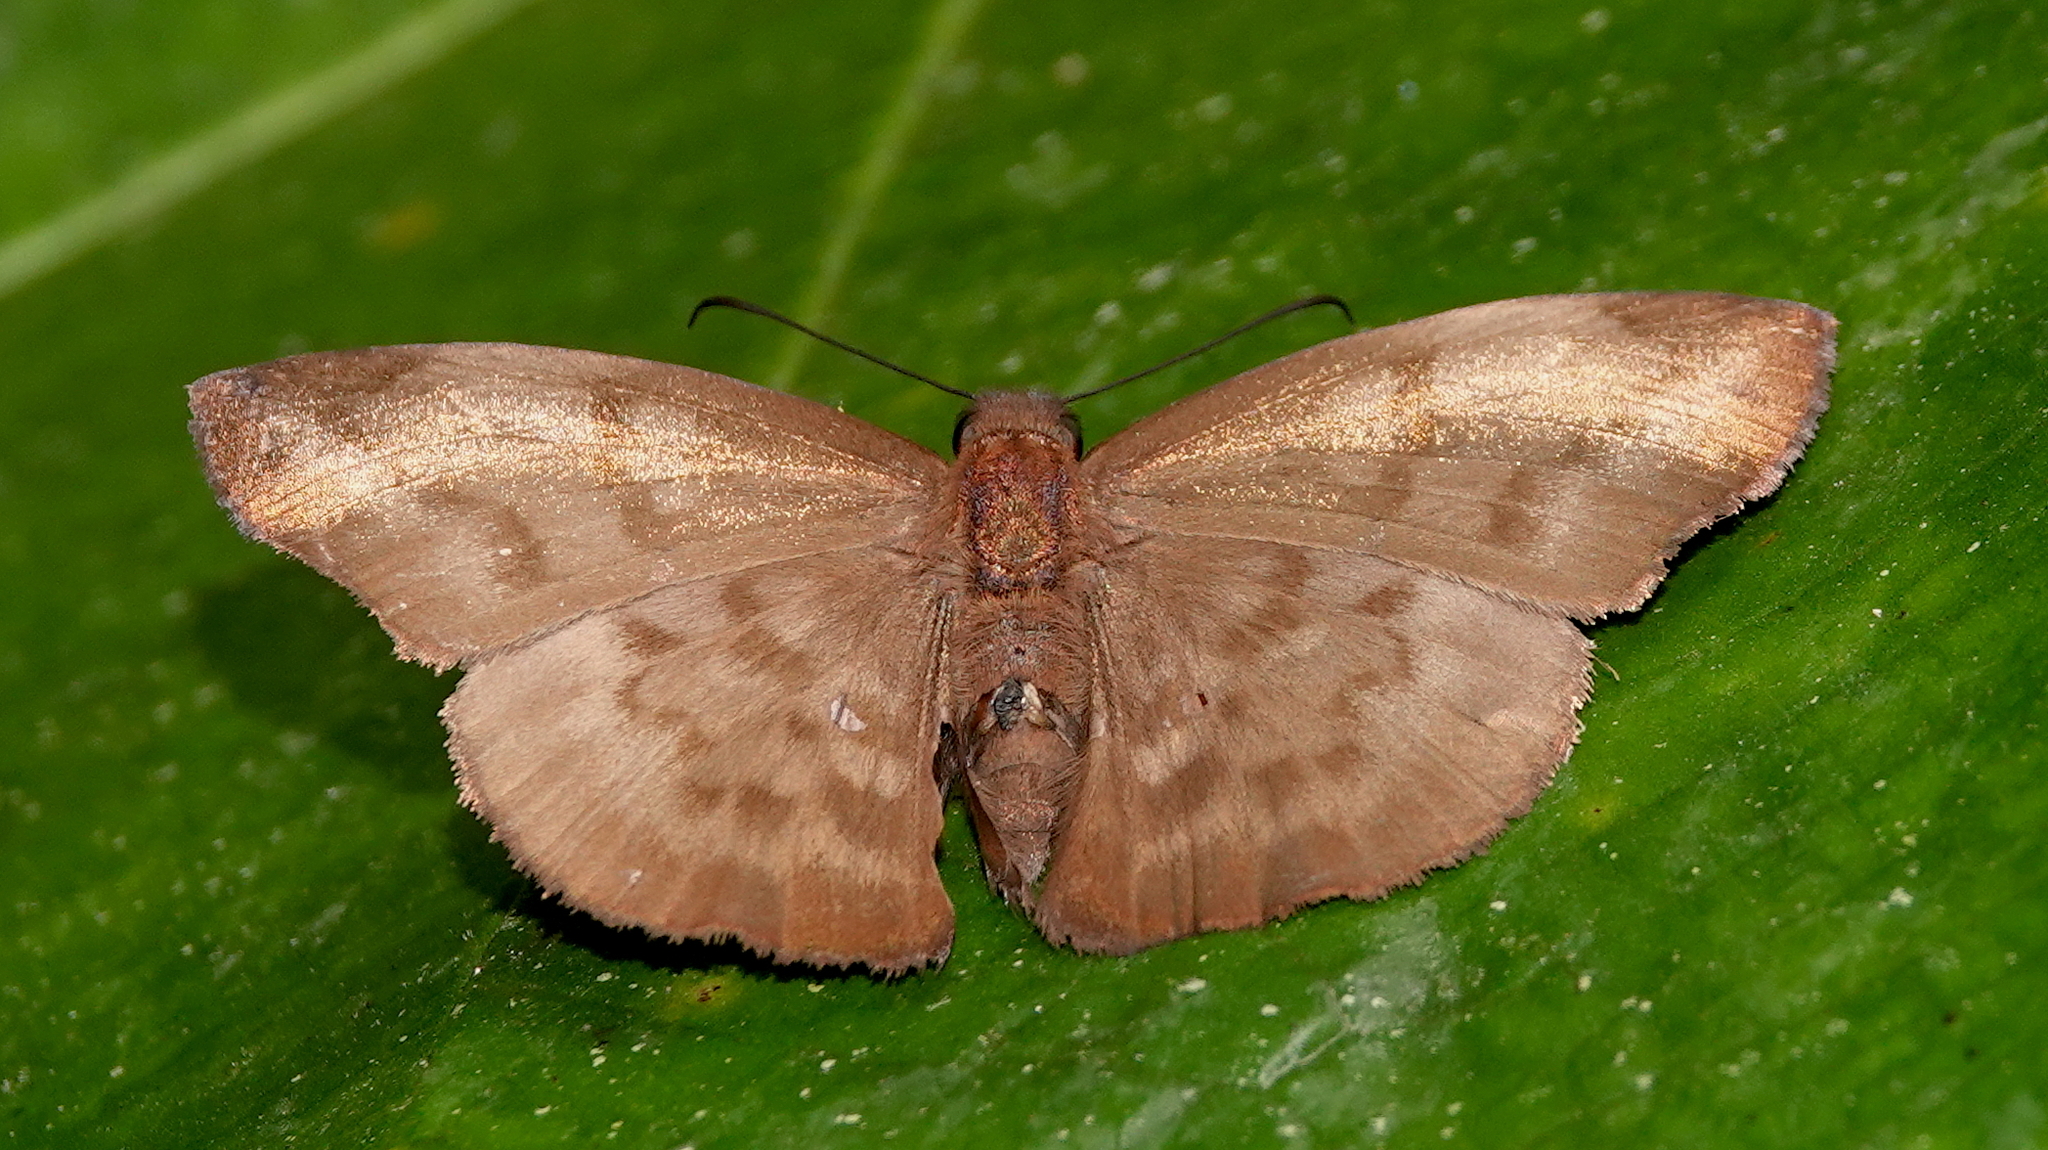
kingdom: Animalia
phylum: Arthropoda
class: Insecta
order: Lepidoptera
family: Hesperiidae
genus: Achlyodes
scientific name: Achlyodes pallida
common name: Pale sicklewing
